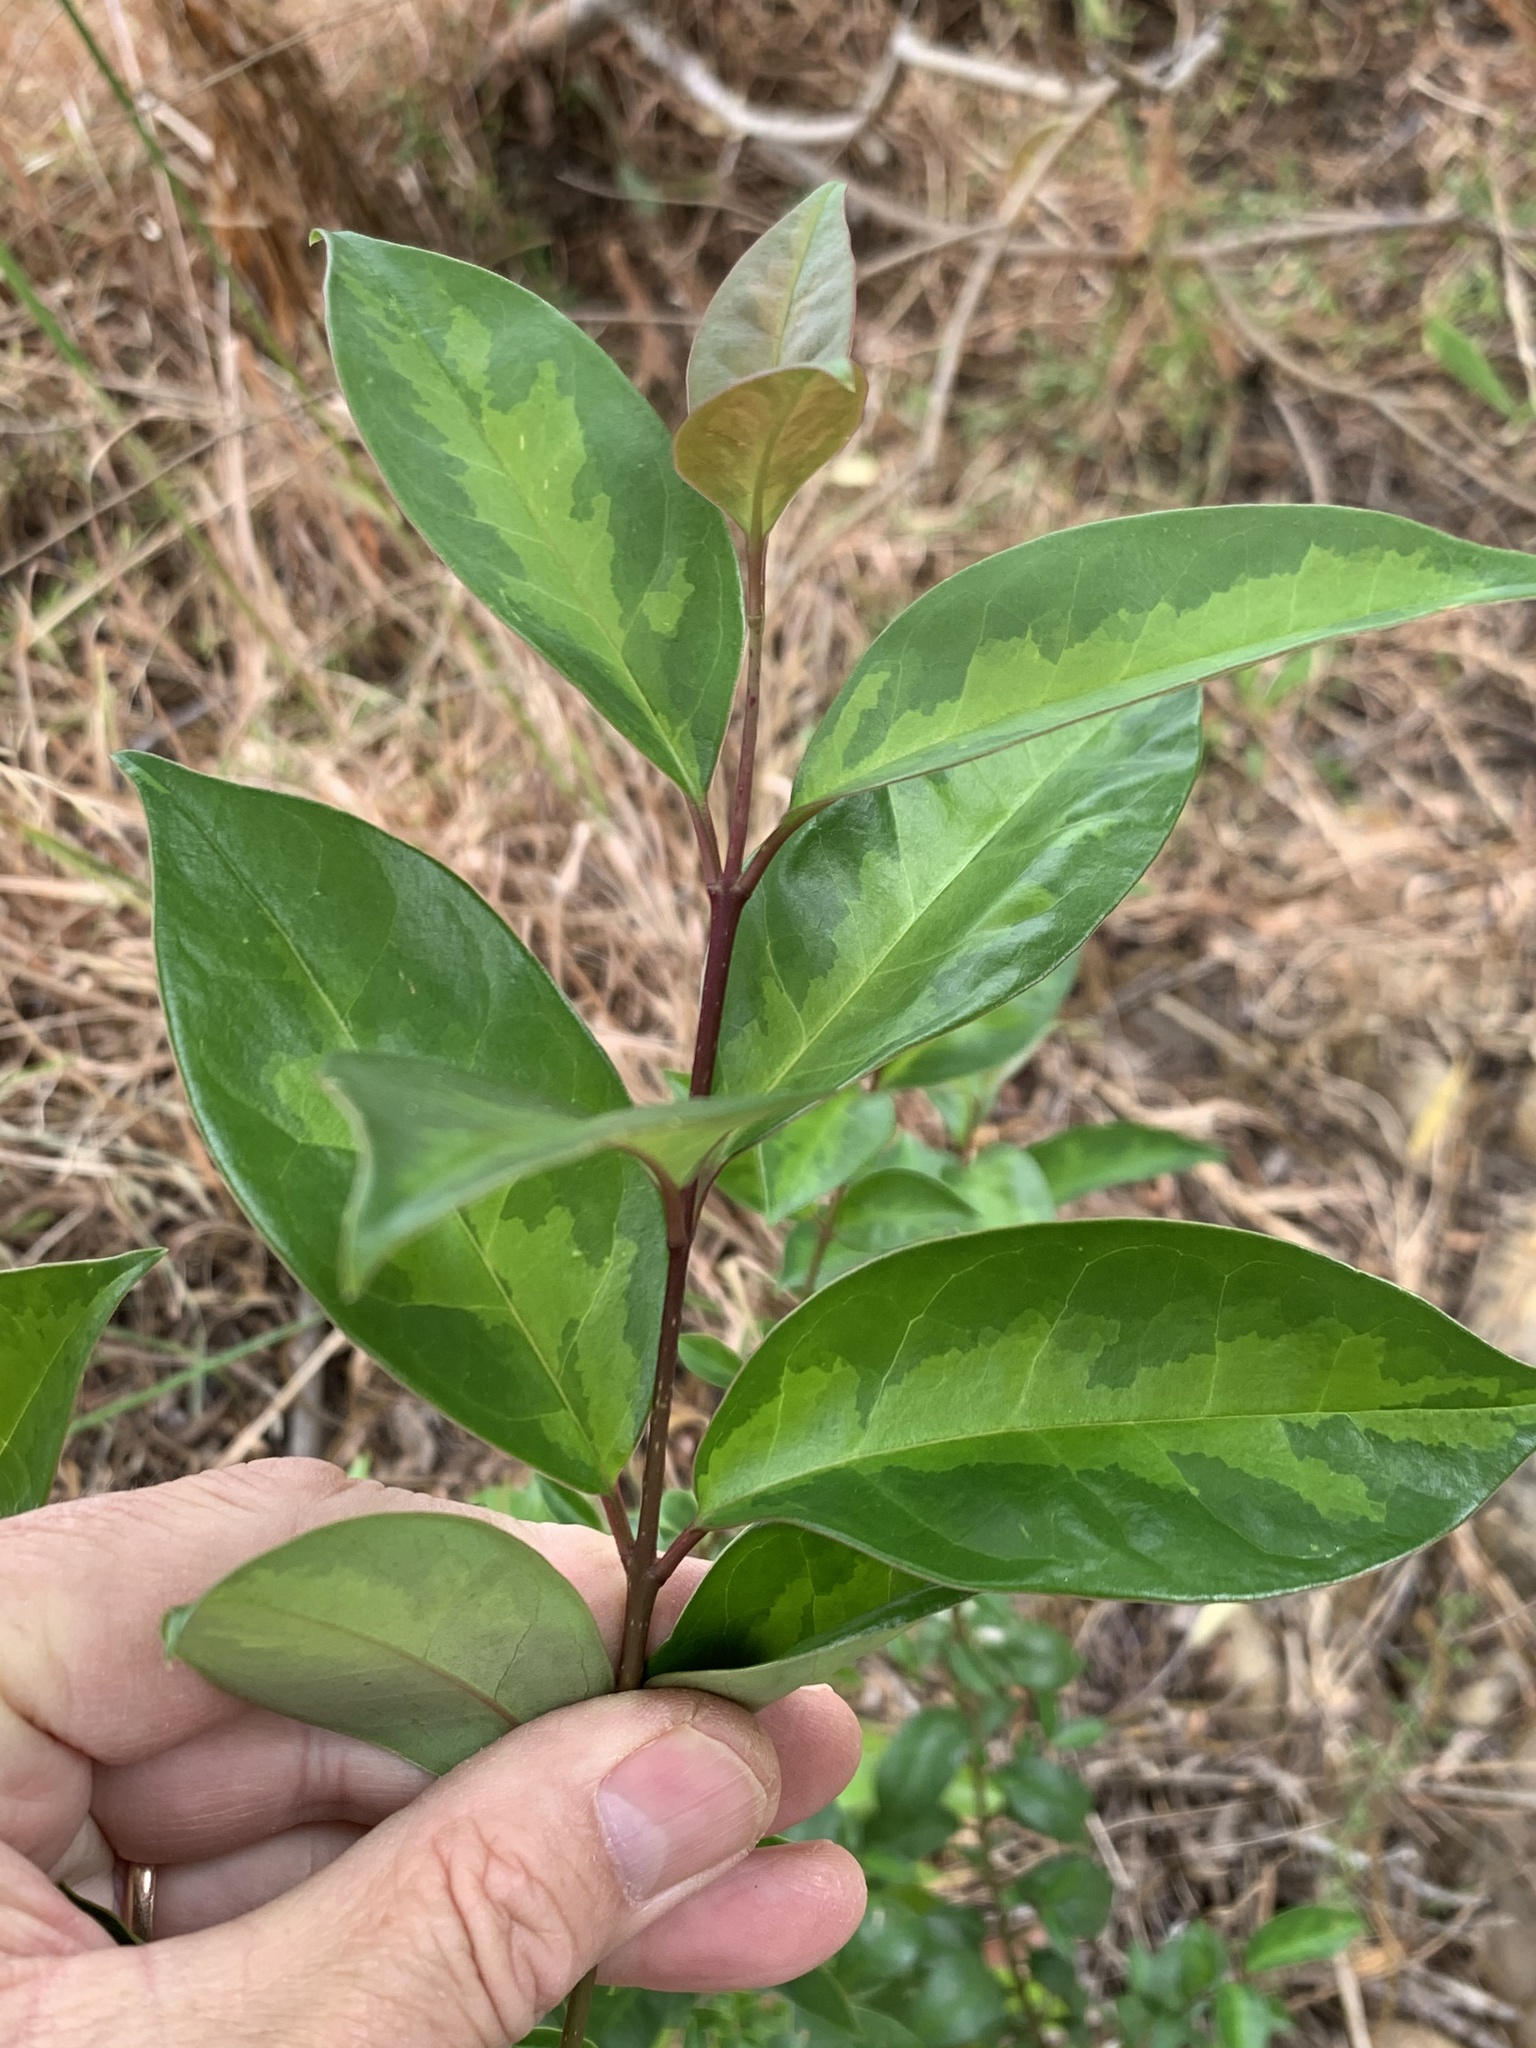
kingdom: Plantae
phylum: Tracheophyta
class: Magnoliopsida
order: Lamiales
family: Oleaceae
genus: Ligustrum
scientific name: Ligustrum lucidum
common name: Glossy privet
